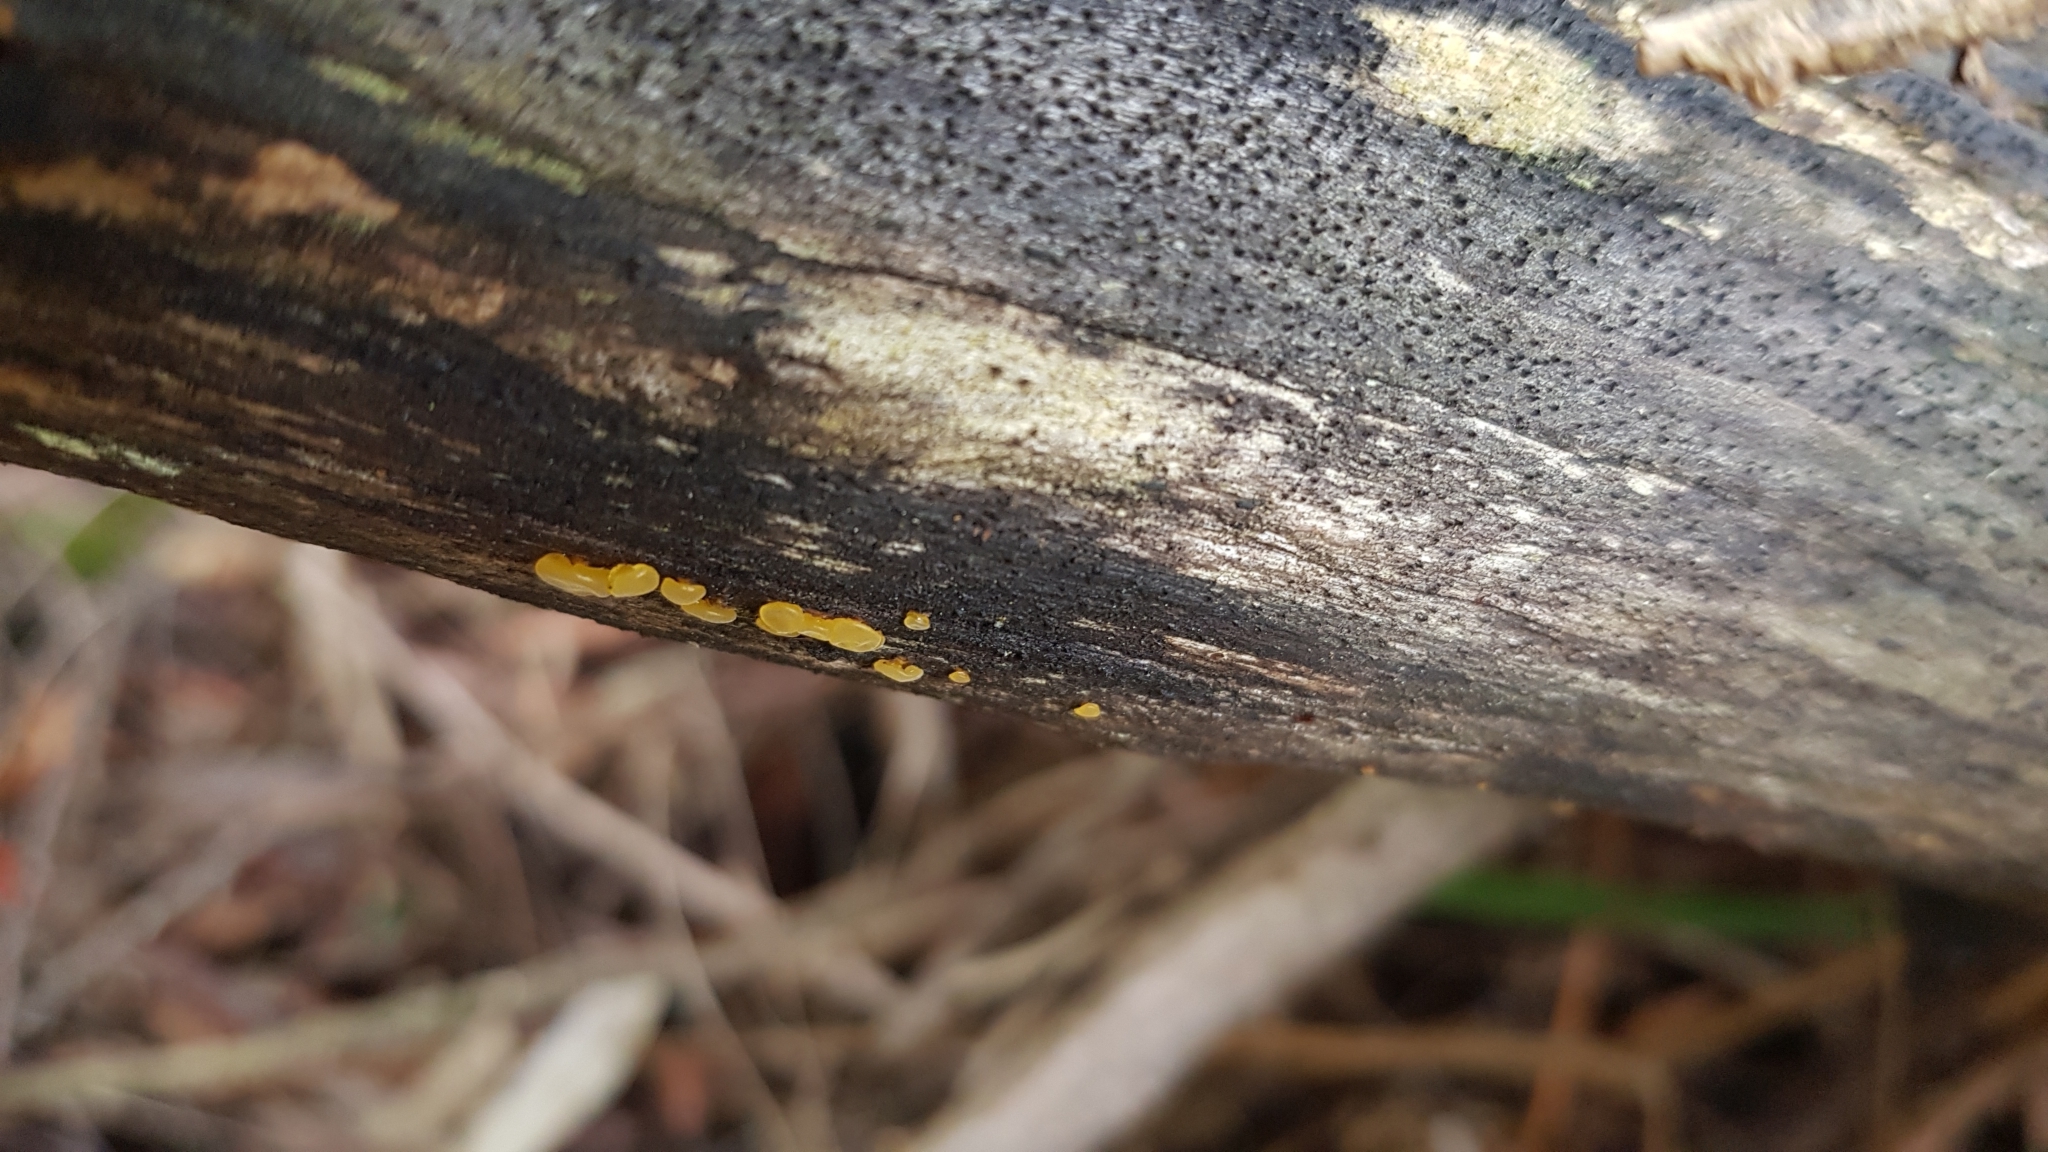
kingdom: Fungi
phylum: Basidiomycota
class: Dacrymycetes
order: Dacrymycetales
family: Dacrymycetaceae
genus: Heterotextus
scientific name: Heterotextus peziziformis
